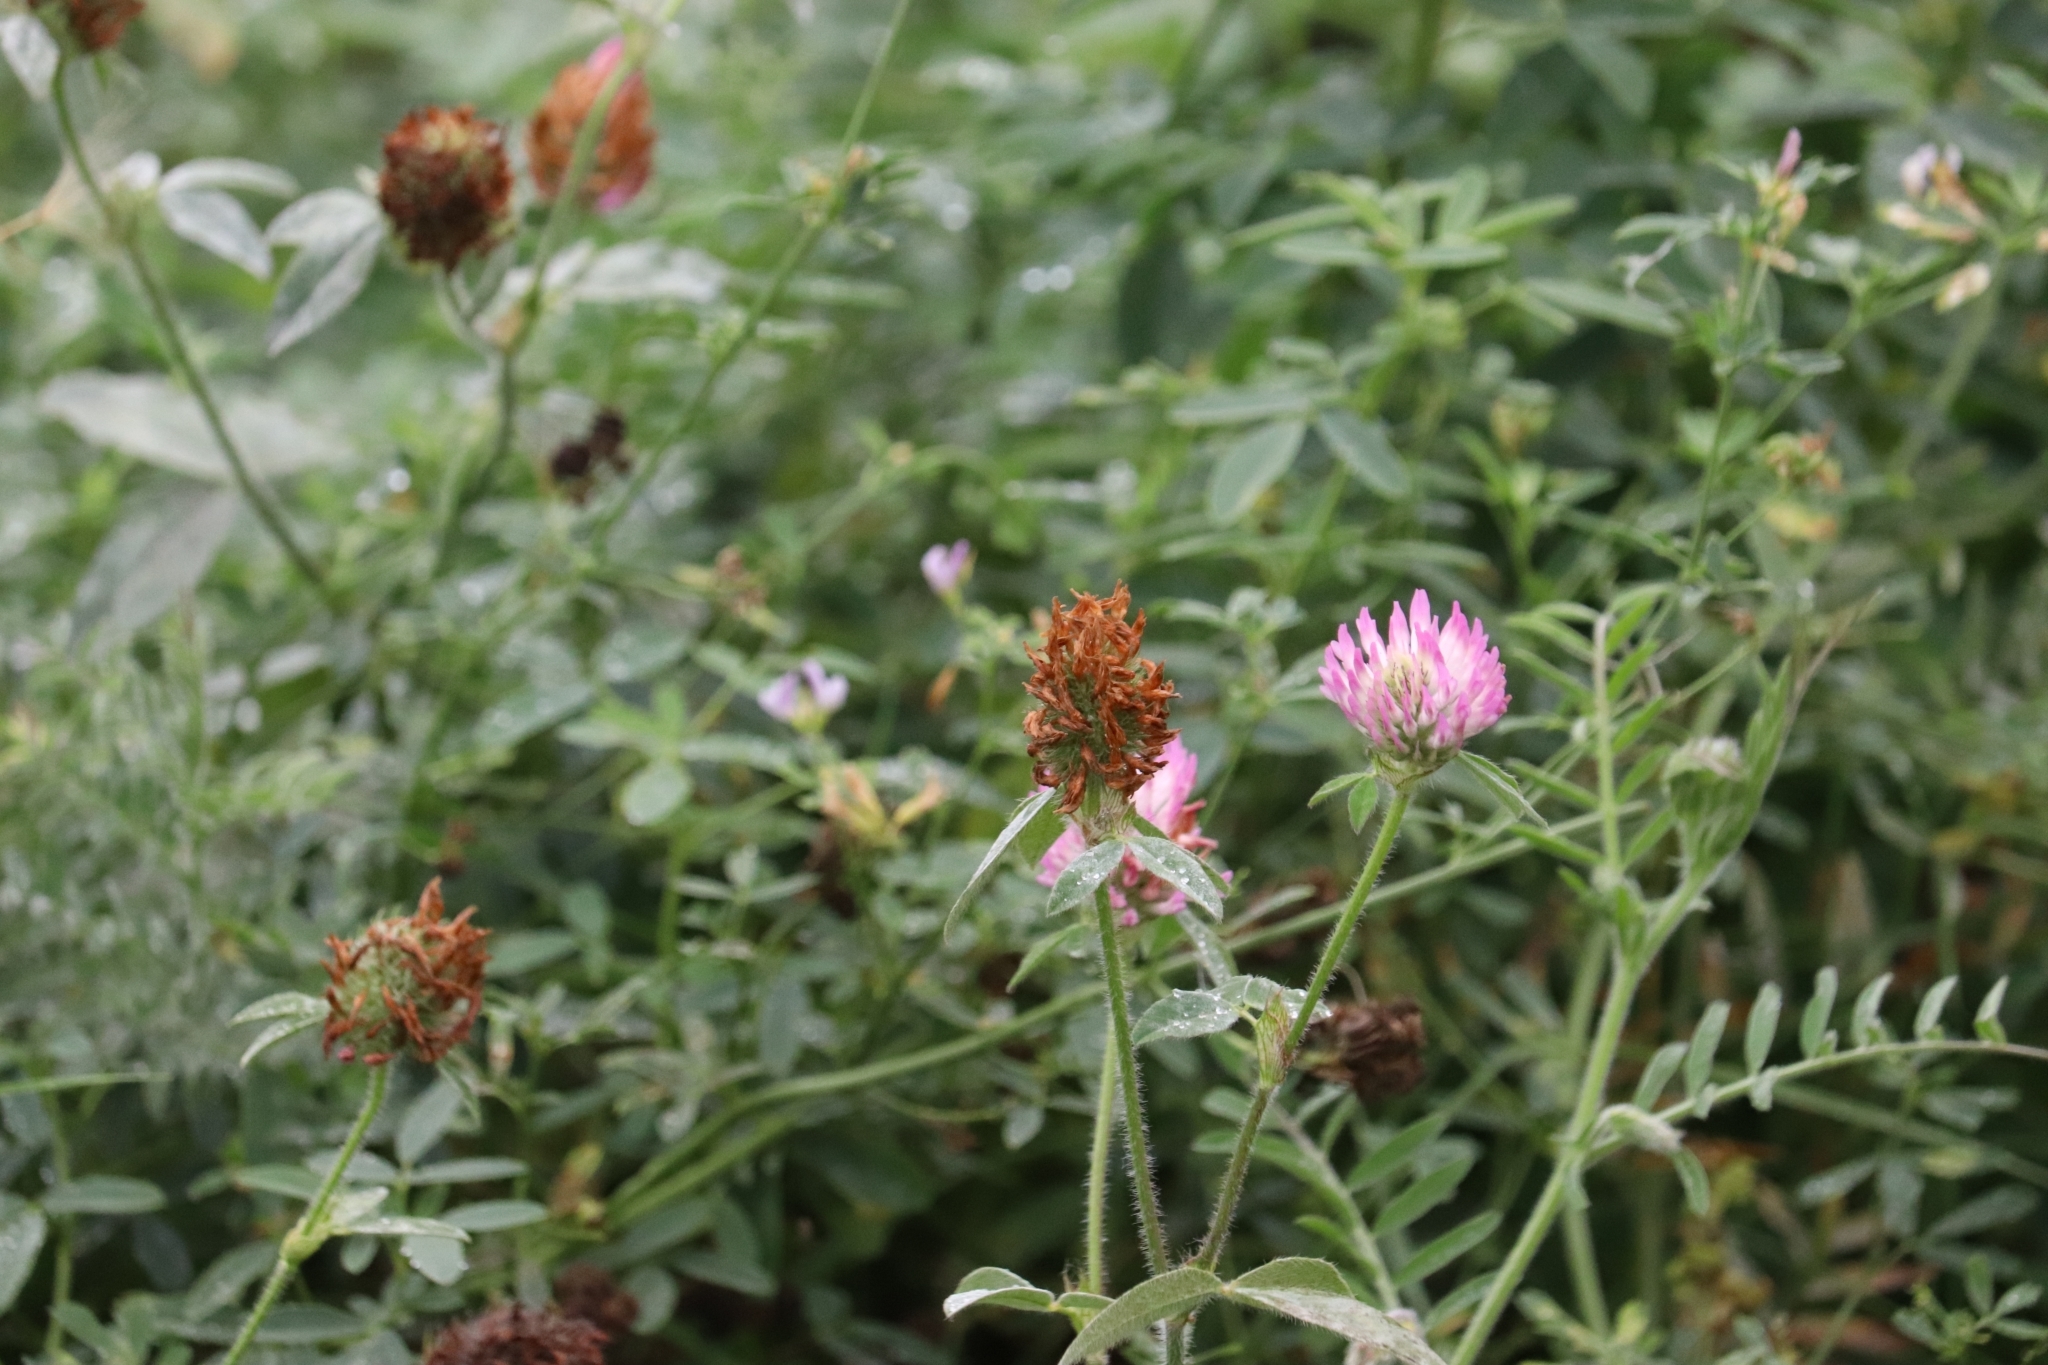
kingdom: Plantae
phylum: Tracheophyta
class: Magnoliopsida
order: Fabales
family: Fabaceae
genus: Trifolium
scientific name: Trifolium pratense
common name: Red clover
